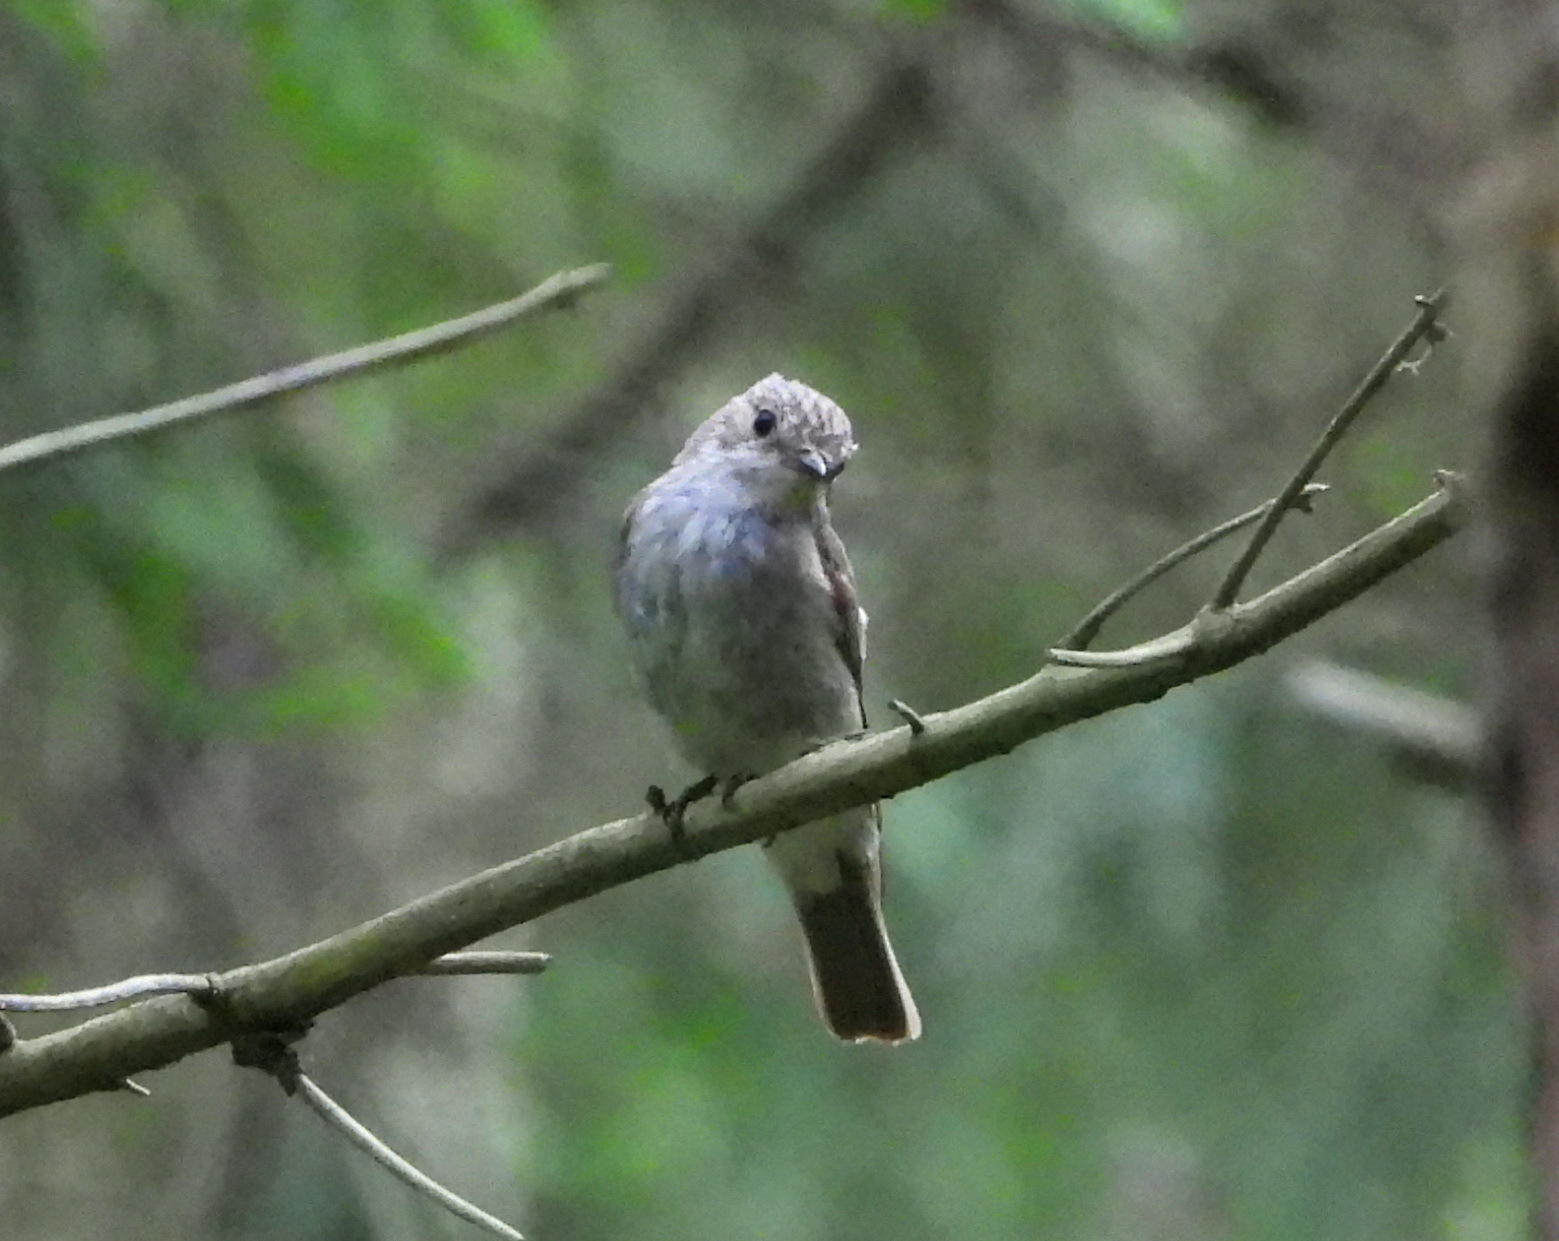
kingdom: Animalia
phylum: Chordata
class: Aves
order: Passeriformes
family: Muscicapidae
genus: Muscicapa
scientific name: Muscicapa striata
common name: Spotted flycatcher
